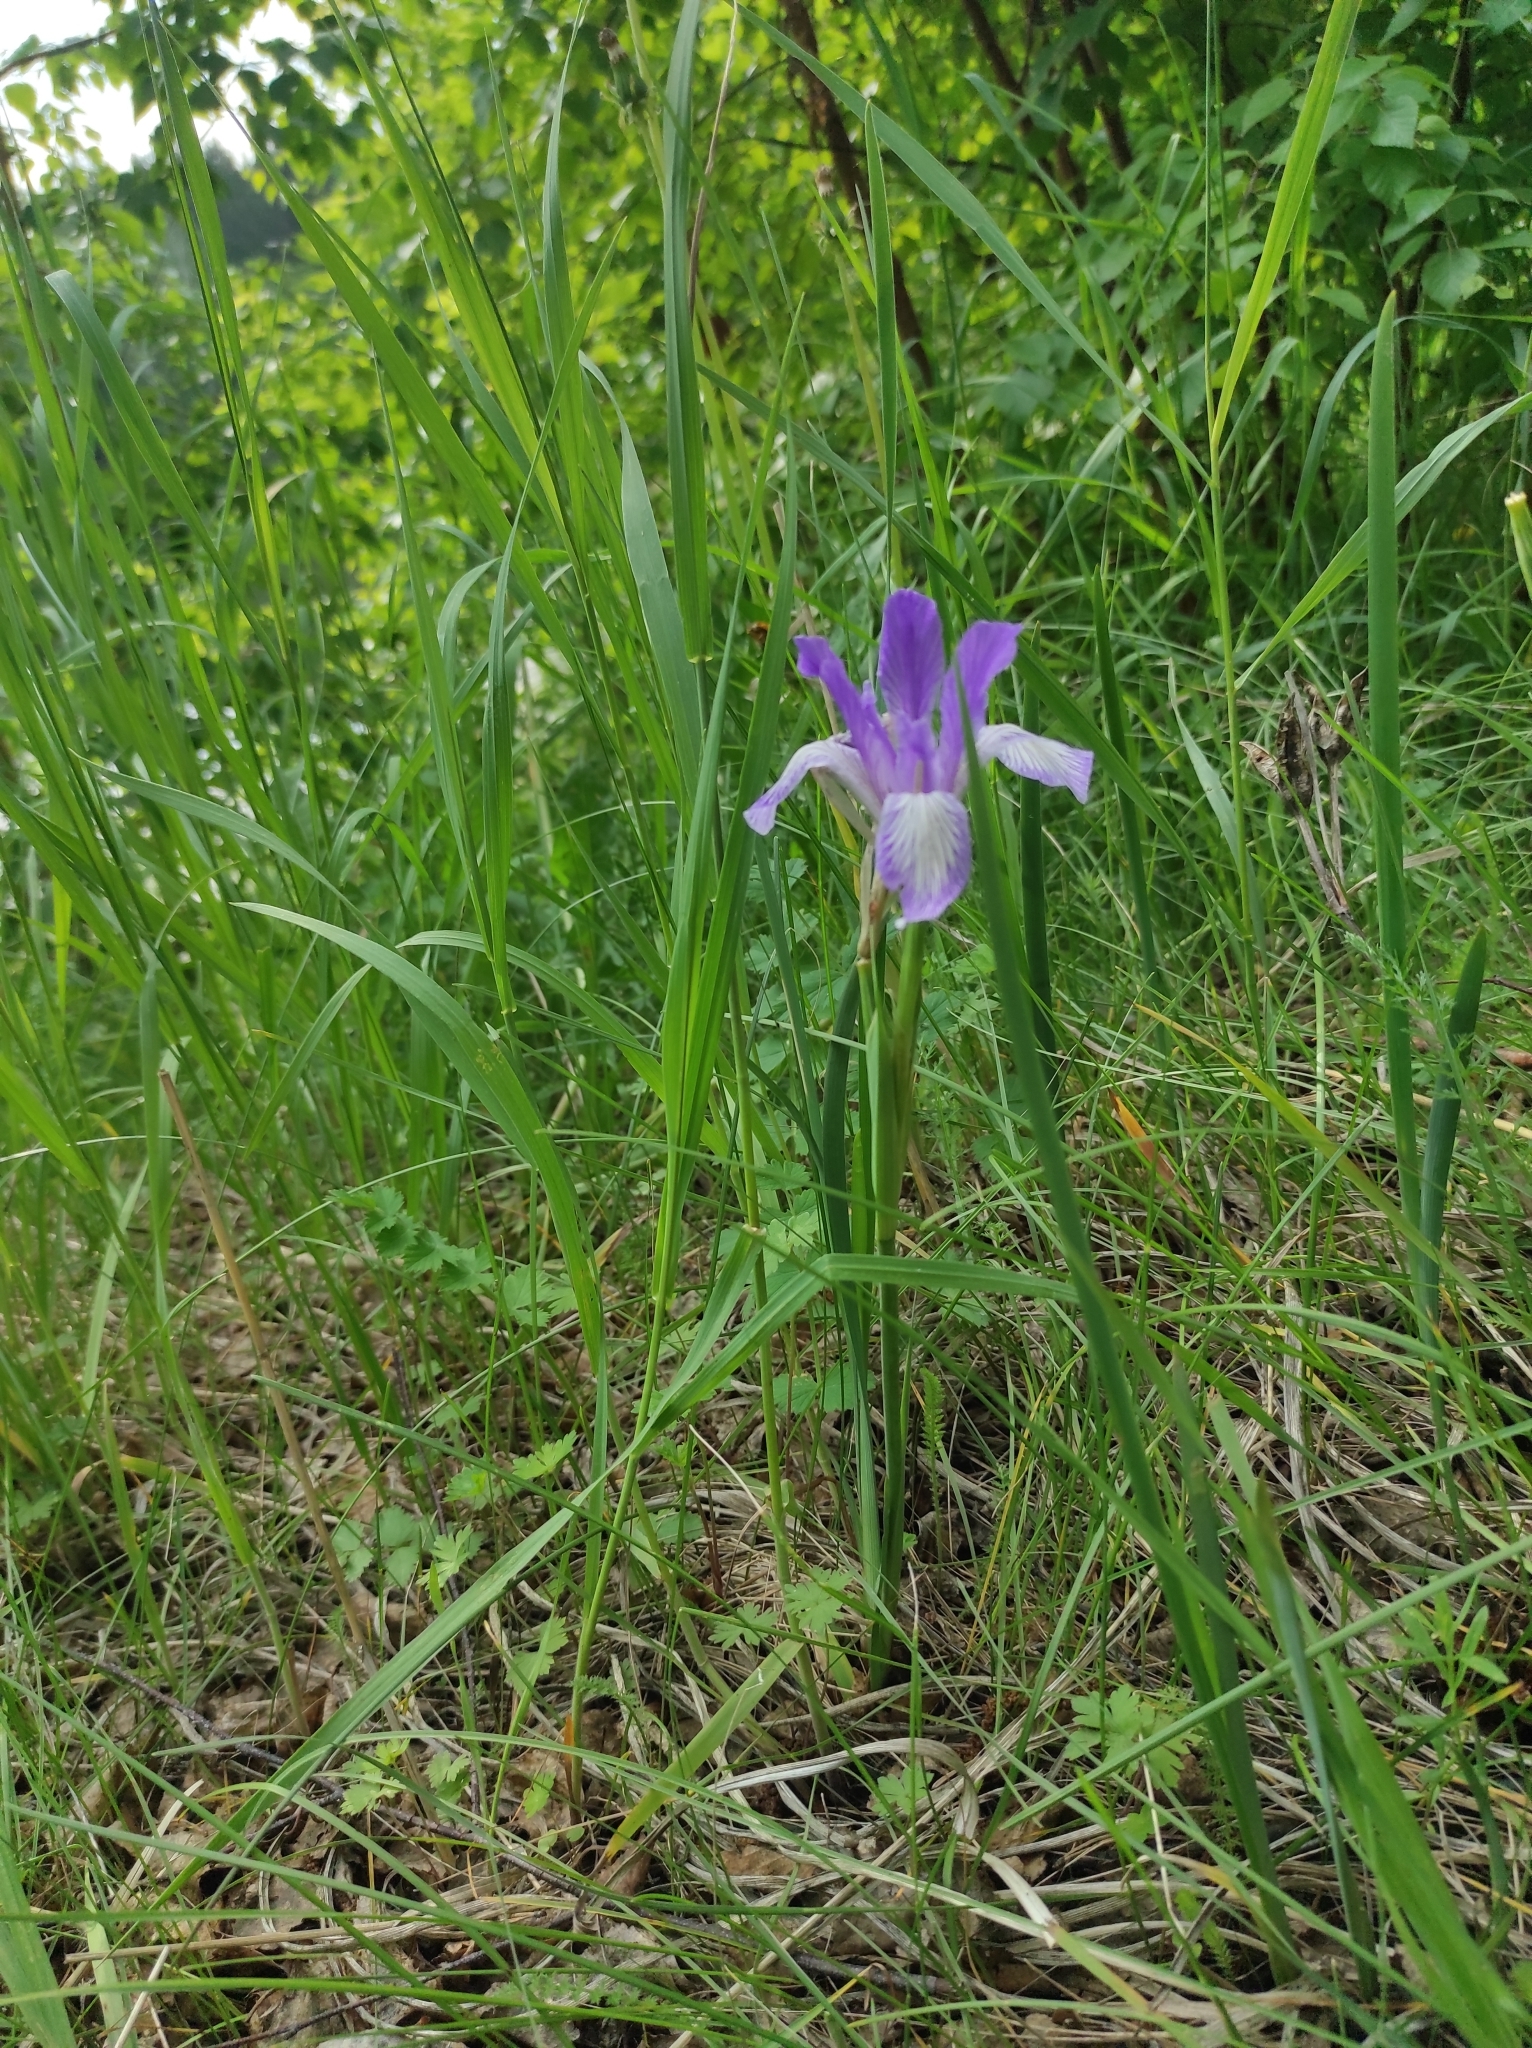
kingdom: Plantae
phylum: Tracheophyta
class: Liliopsida
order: Asparagales
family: Iridaceae
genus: Iris
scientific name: Iris lactea
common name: White-flower chinese iris
